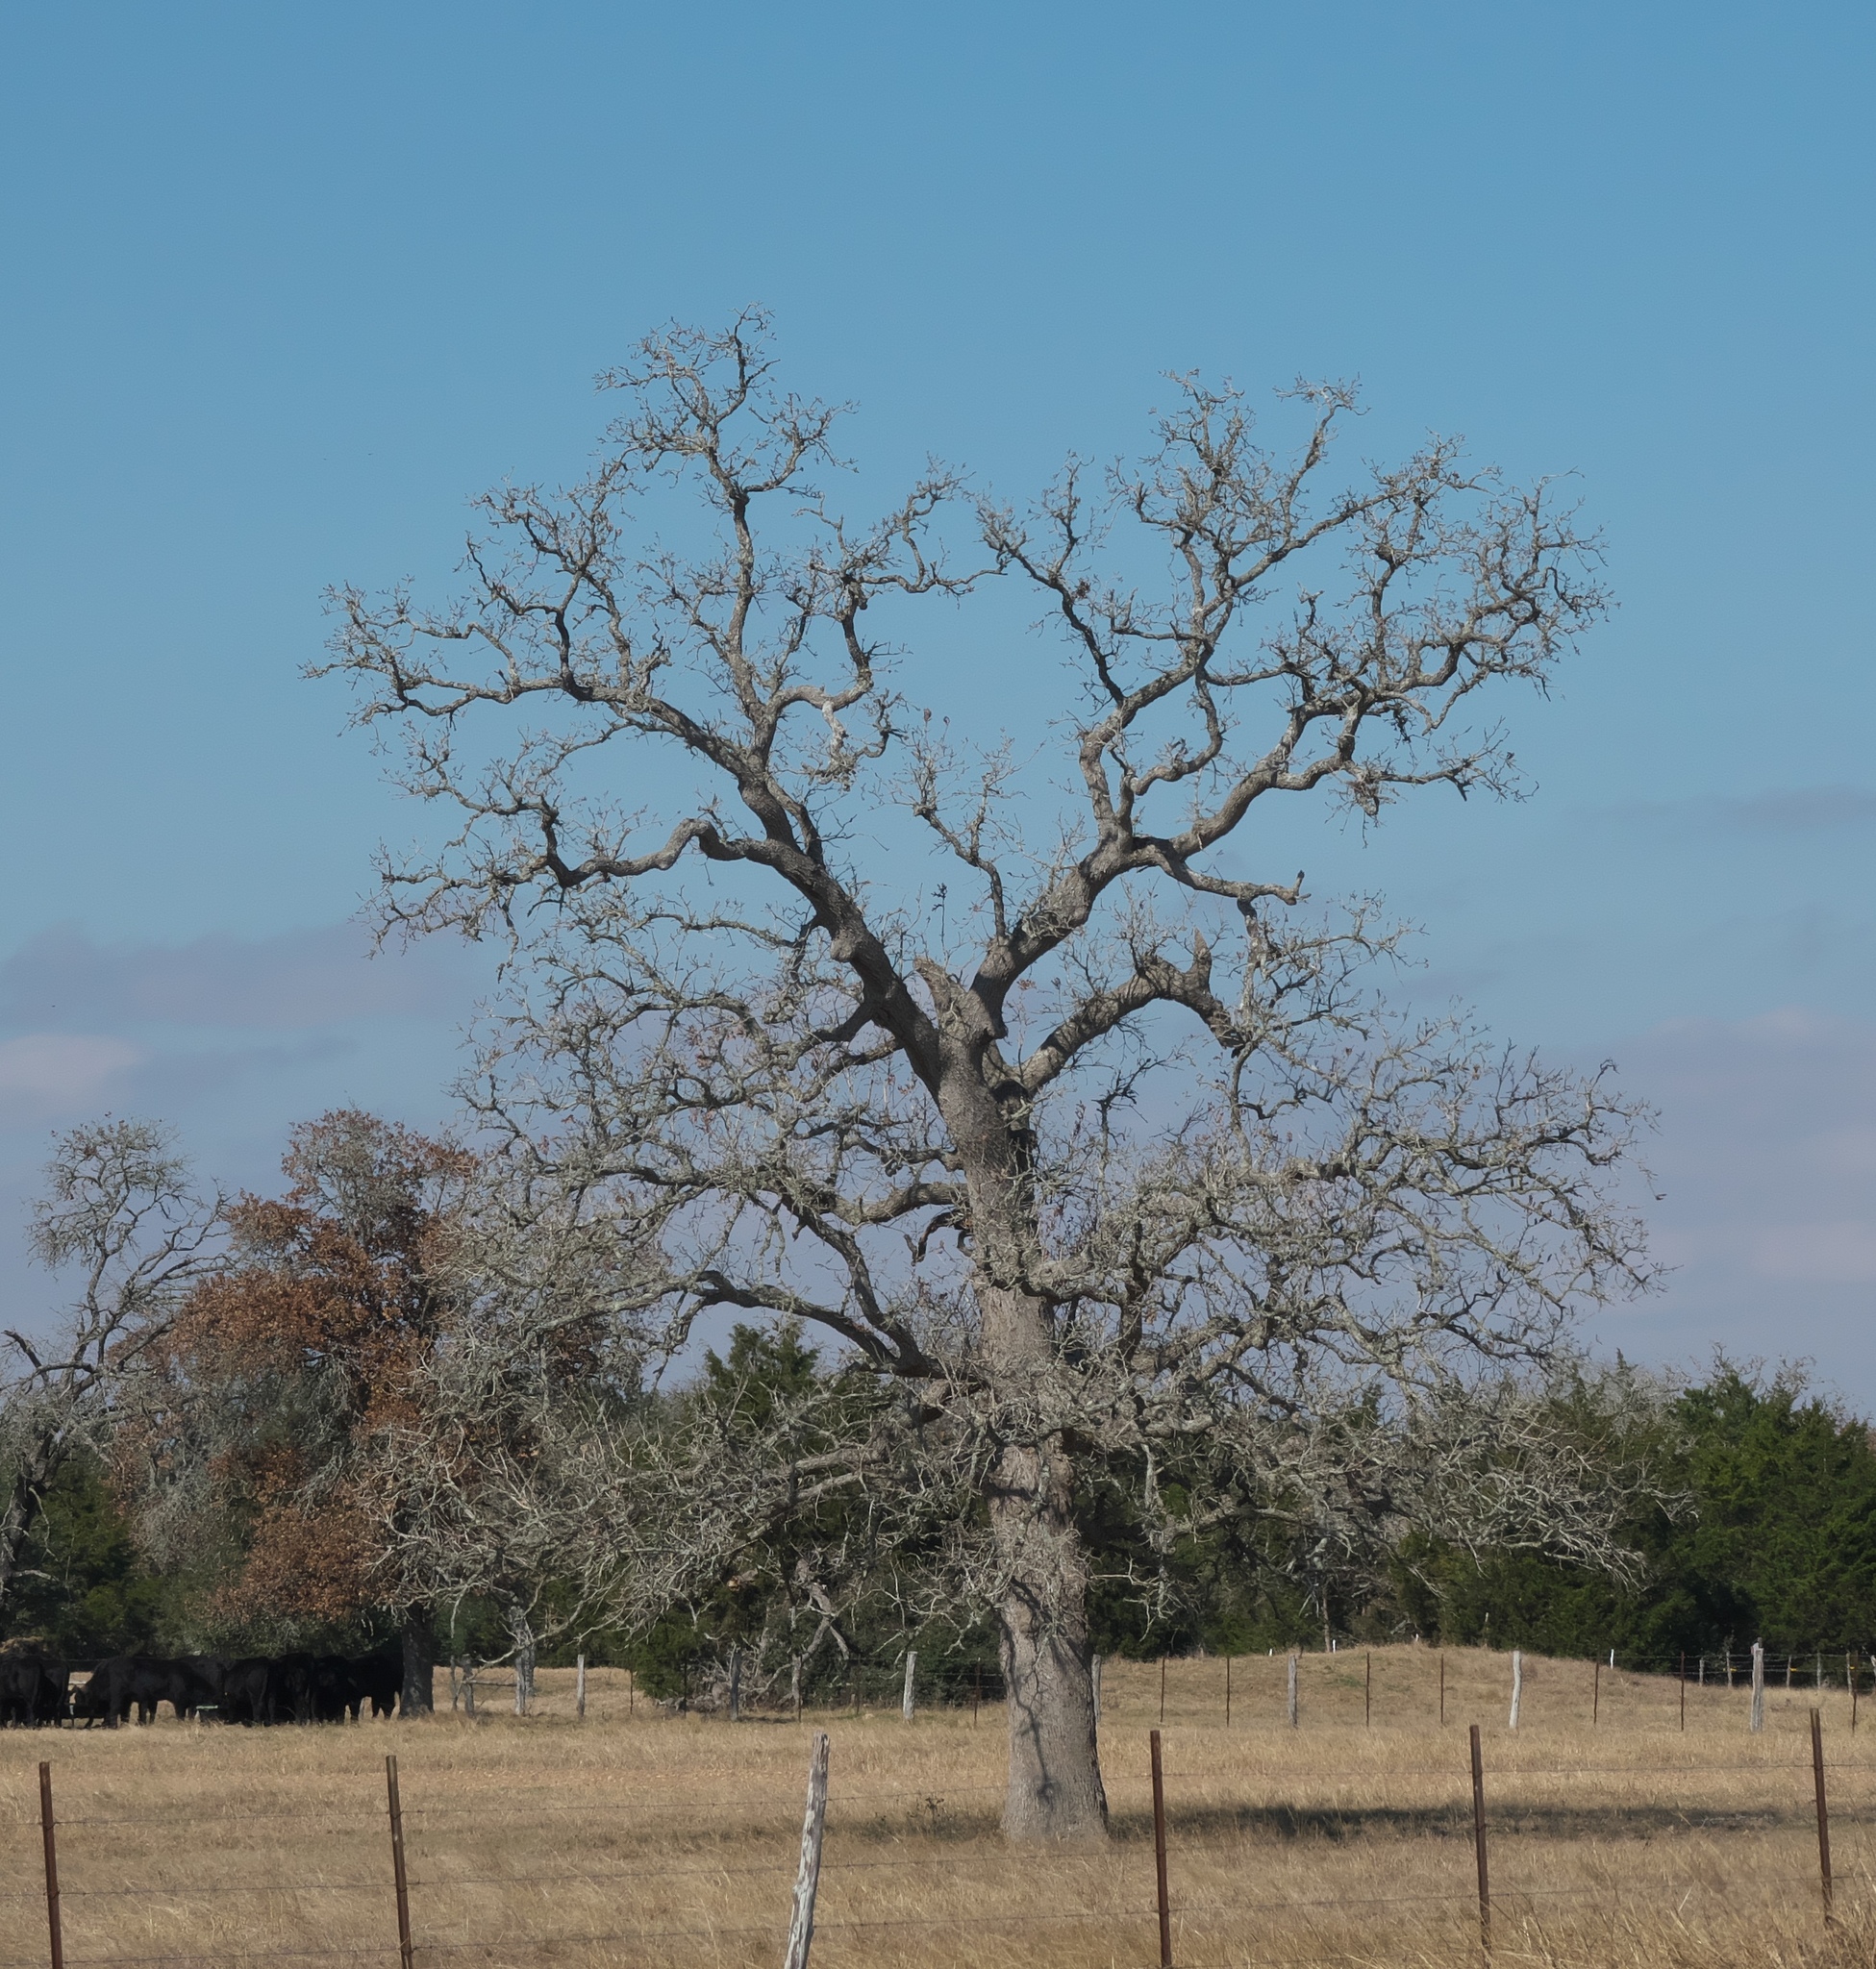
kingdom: Plantae
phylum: Tracheophyta
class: Magnoliopsida
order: Fagales
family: Fagaceae
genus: Quercus
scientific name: Quercus stellata
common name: Post oak
